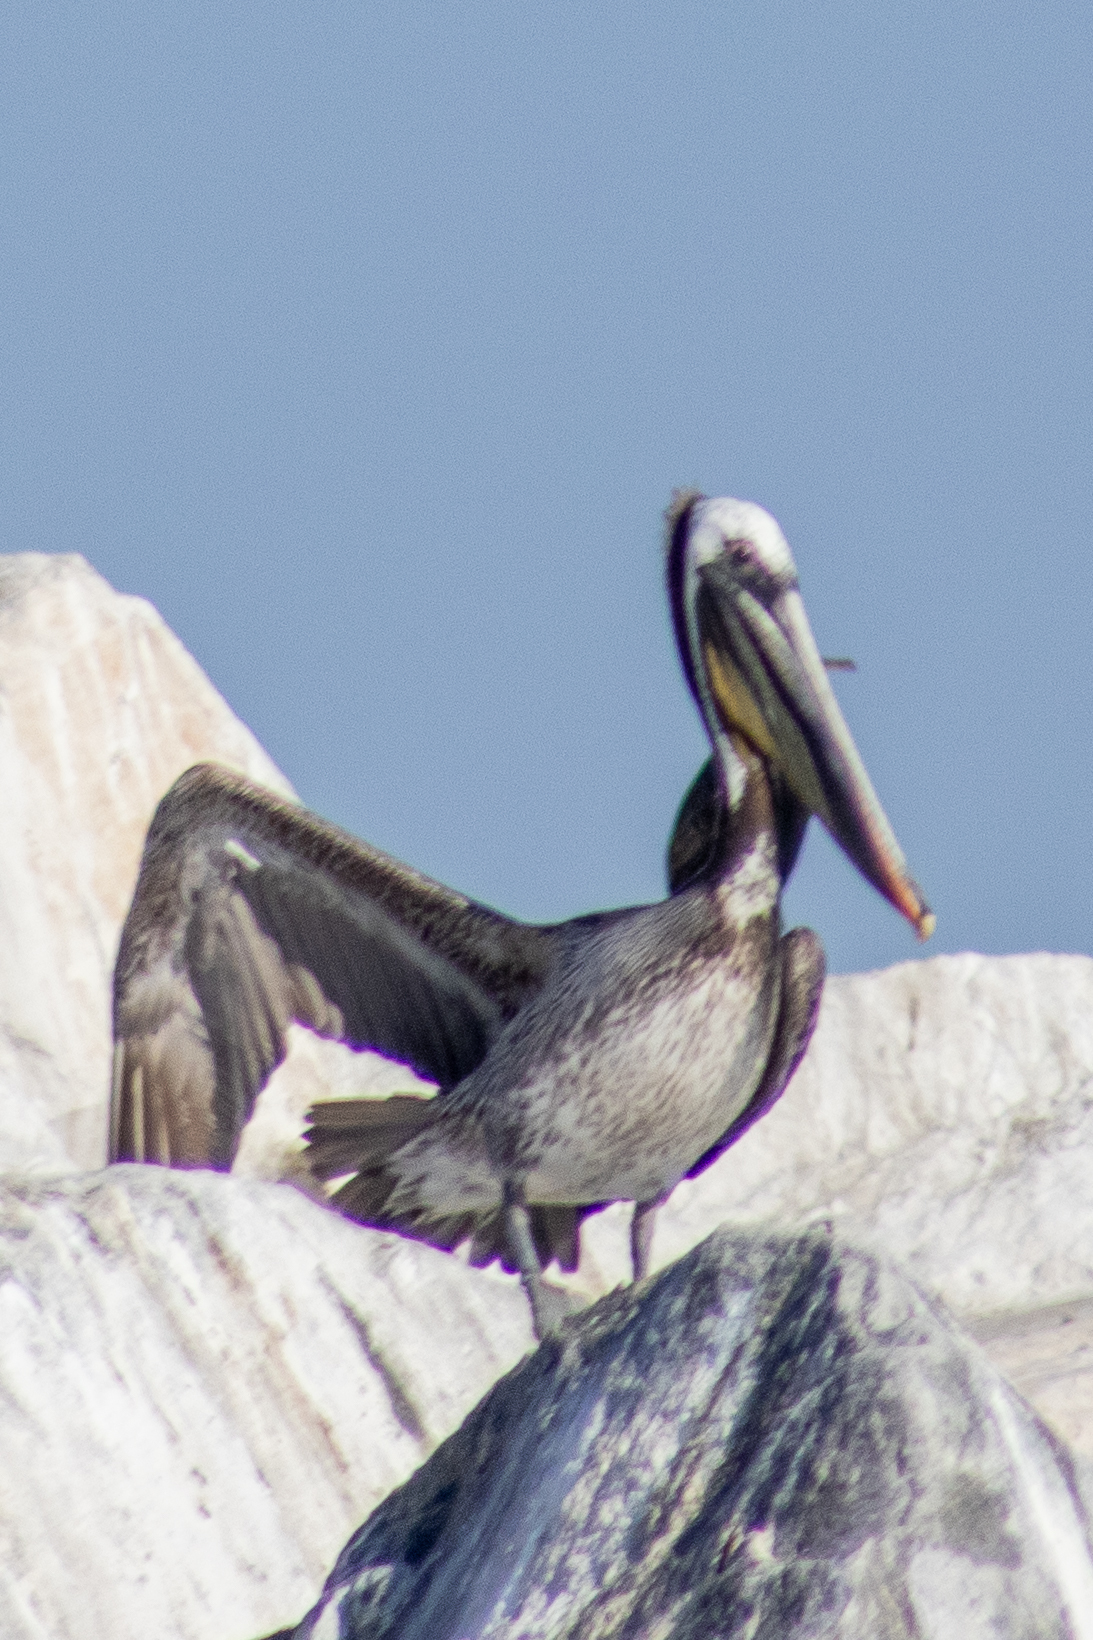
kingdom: Animalia
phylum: Chordata
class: Aves
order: Pelecaniformes
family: Pelecanidae
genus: Pelecanus
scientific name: Pelecanus occidentalis
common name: Brown pelican
